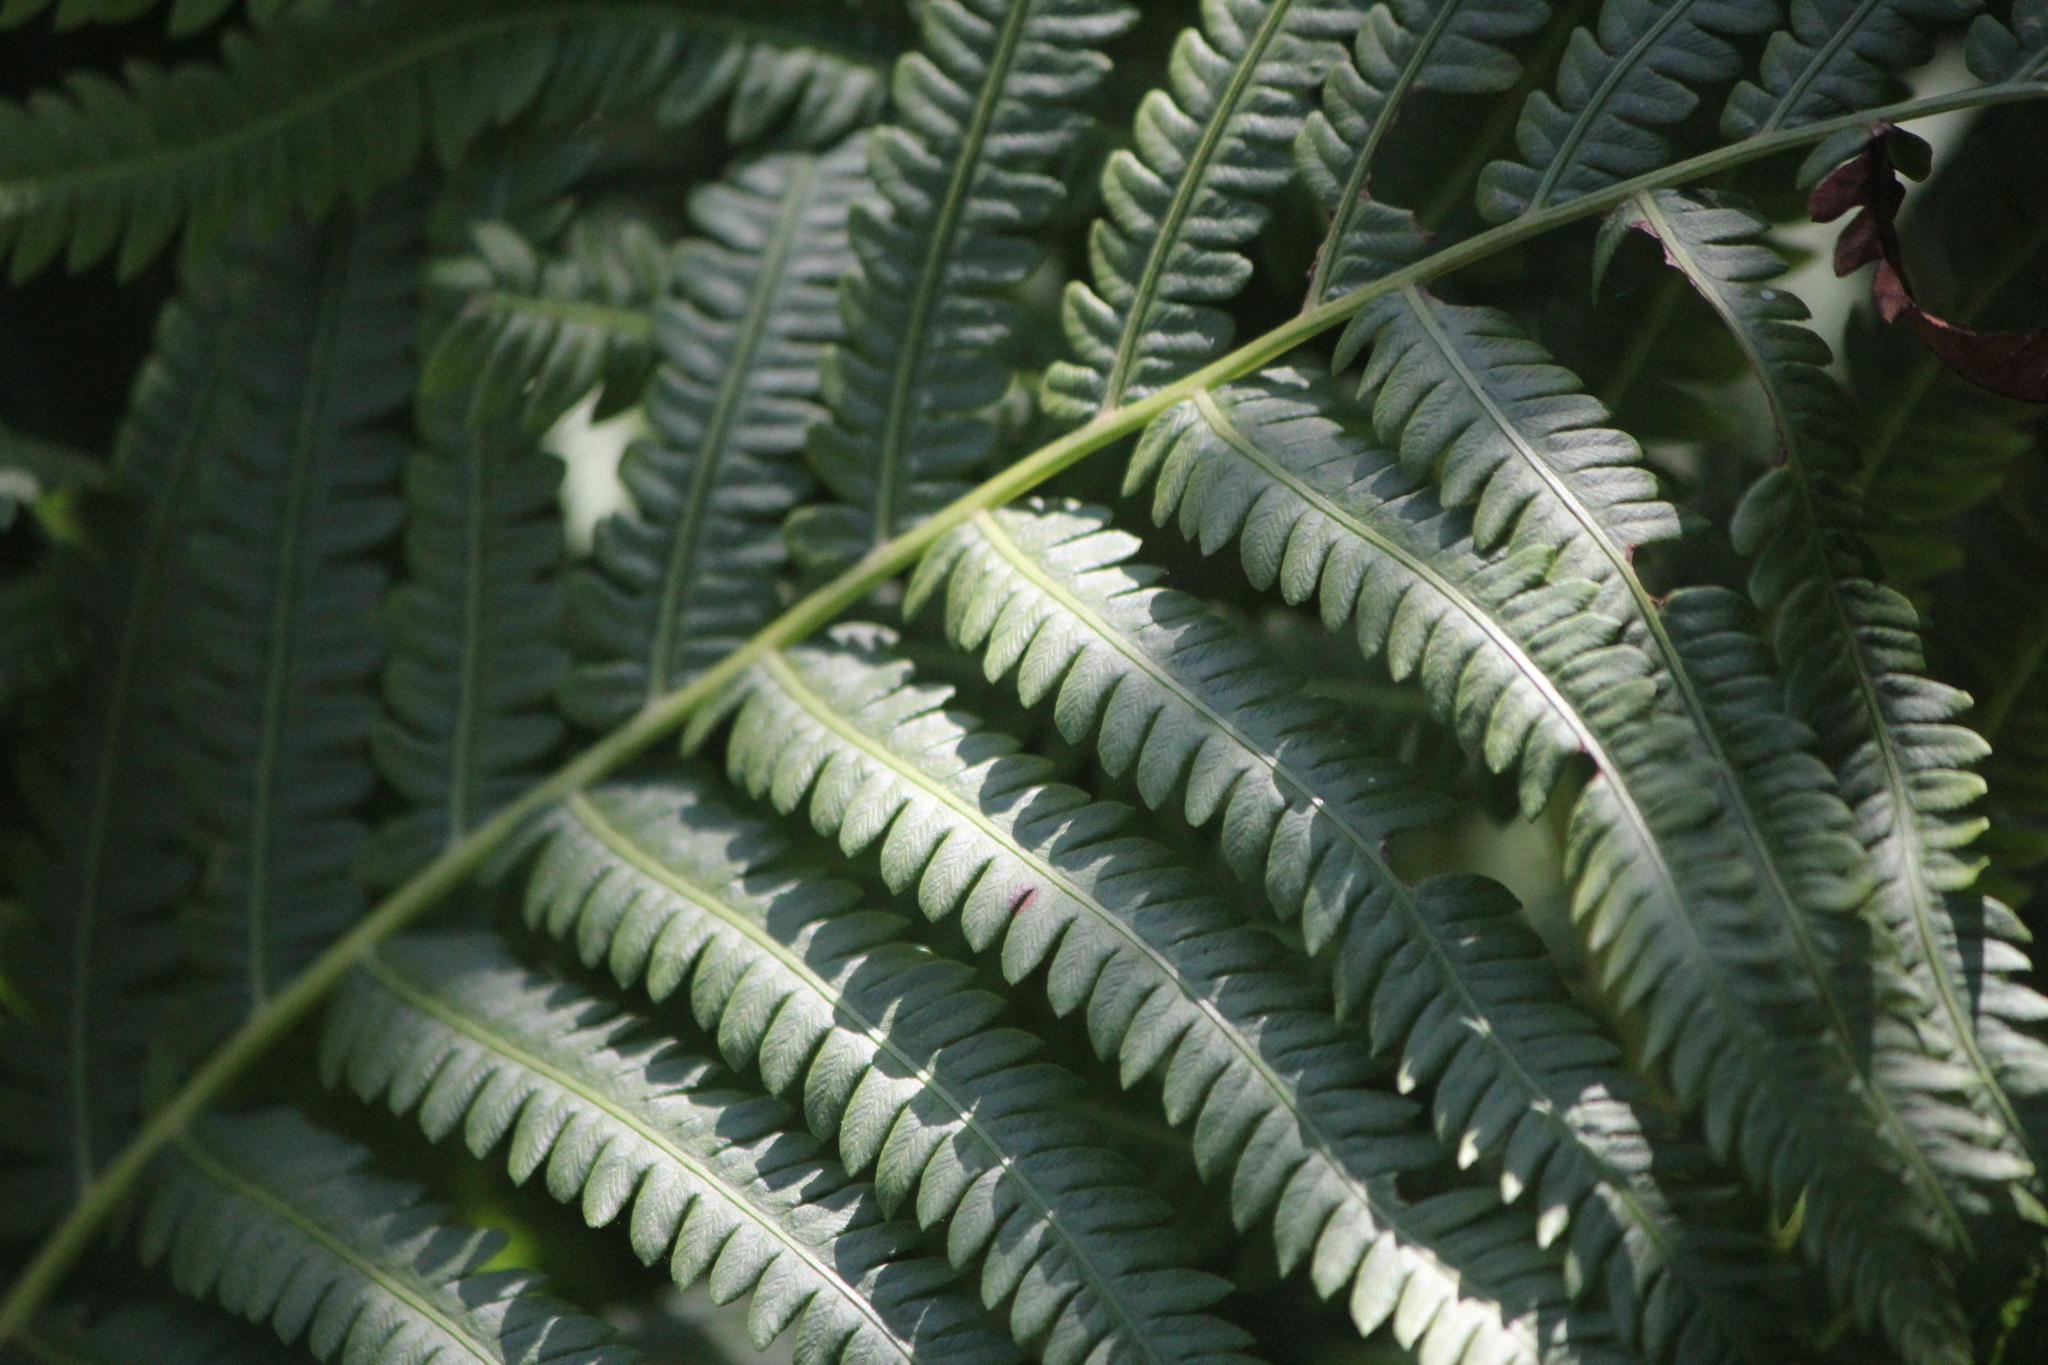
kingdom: Plantae
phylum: Tracheophyta
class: Polypodiopsida
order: Polypodiales
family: Onocleaceae
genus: Matteuccia
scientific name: Matteuccia struthiopteris
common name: Ostrich fern
